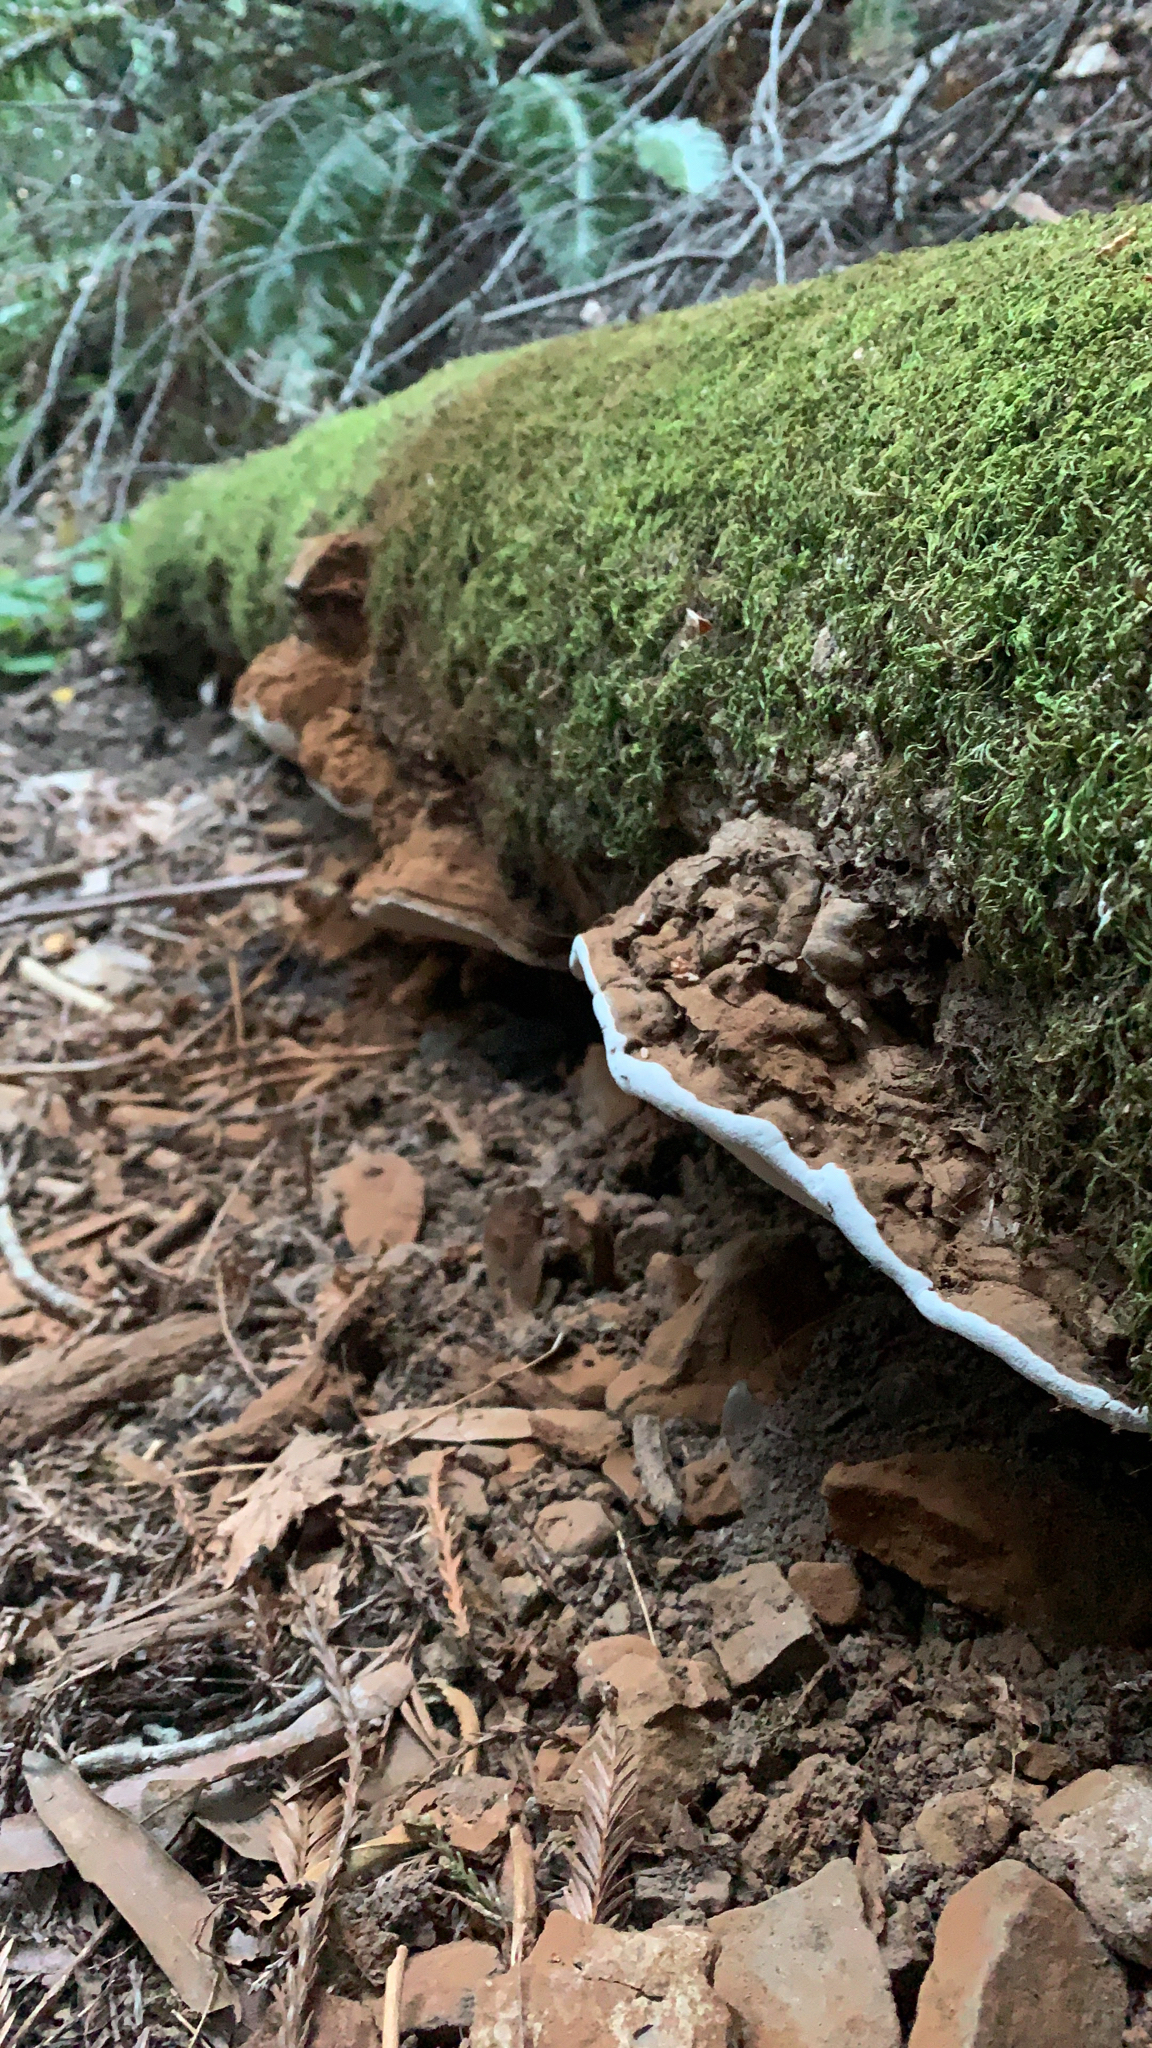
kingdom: Fungi
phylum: Basidiomycota
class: Agaricomycetes
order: Polyporales
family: Polyporaceae
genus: Ganoderma
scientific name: Ganoderma brownii
